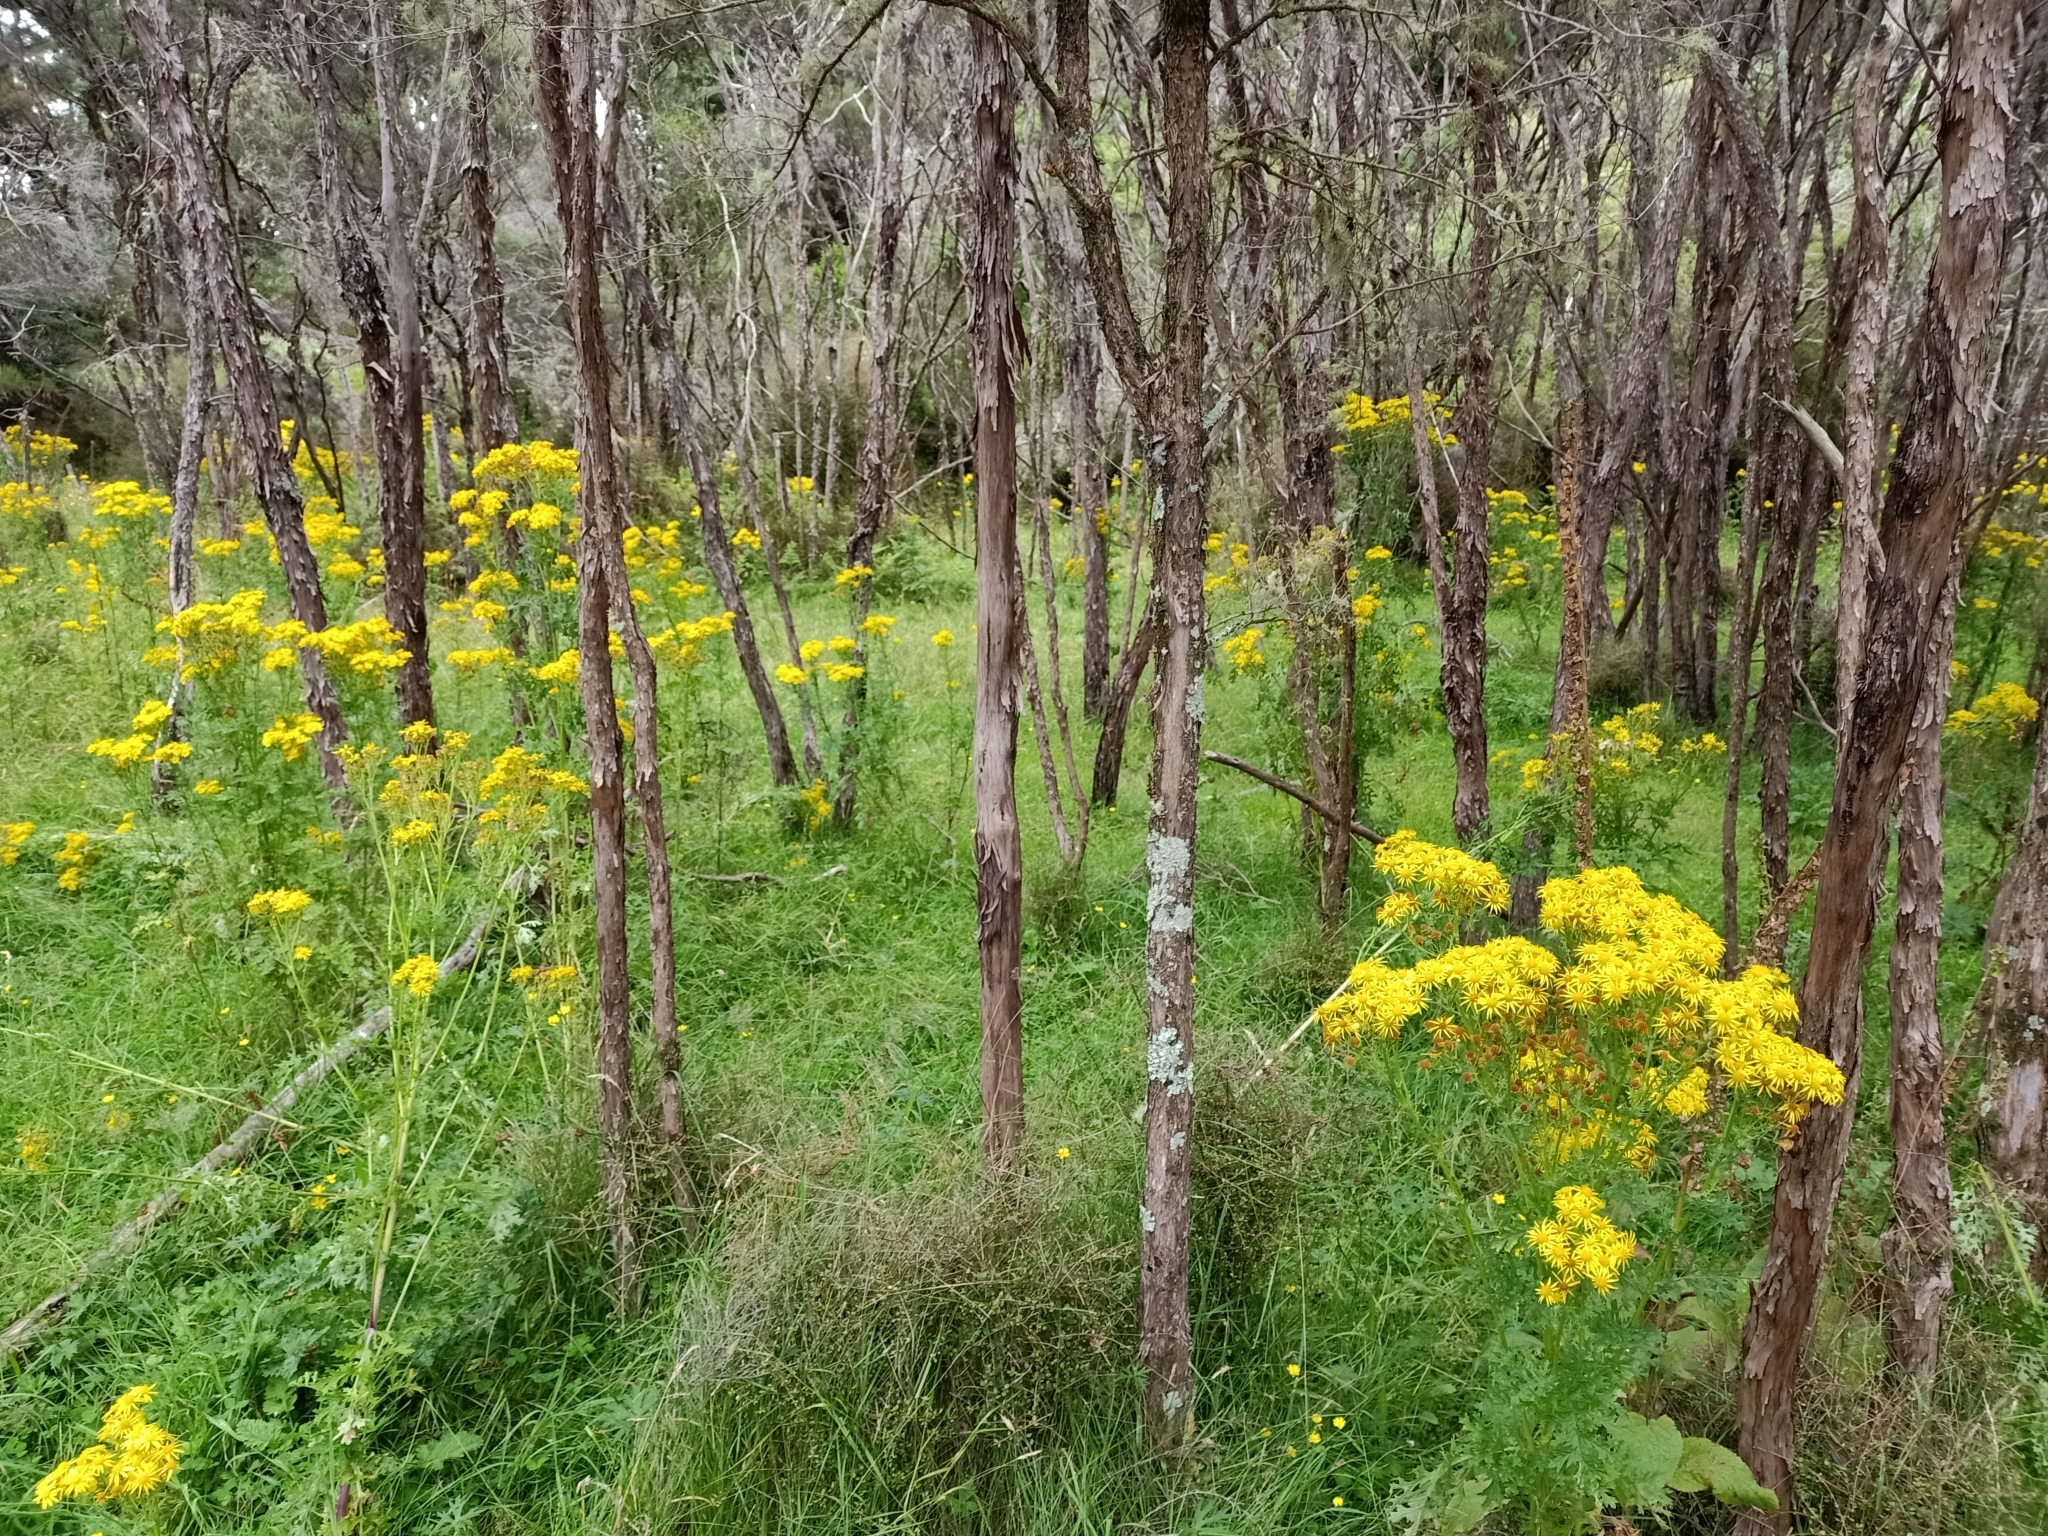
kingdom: Plantae
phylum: Tracheophyta
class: Magnoliopsida
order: Asterales
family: Asteraceae
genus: Jacobaea
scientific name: Jacobaea vulgaris
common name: Stinking willie
